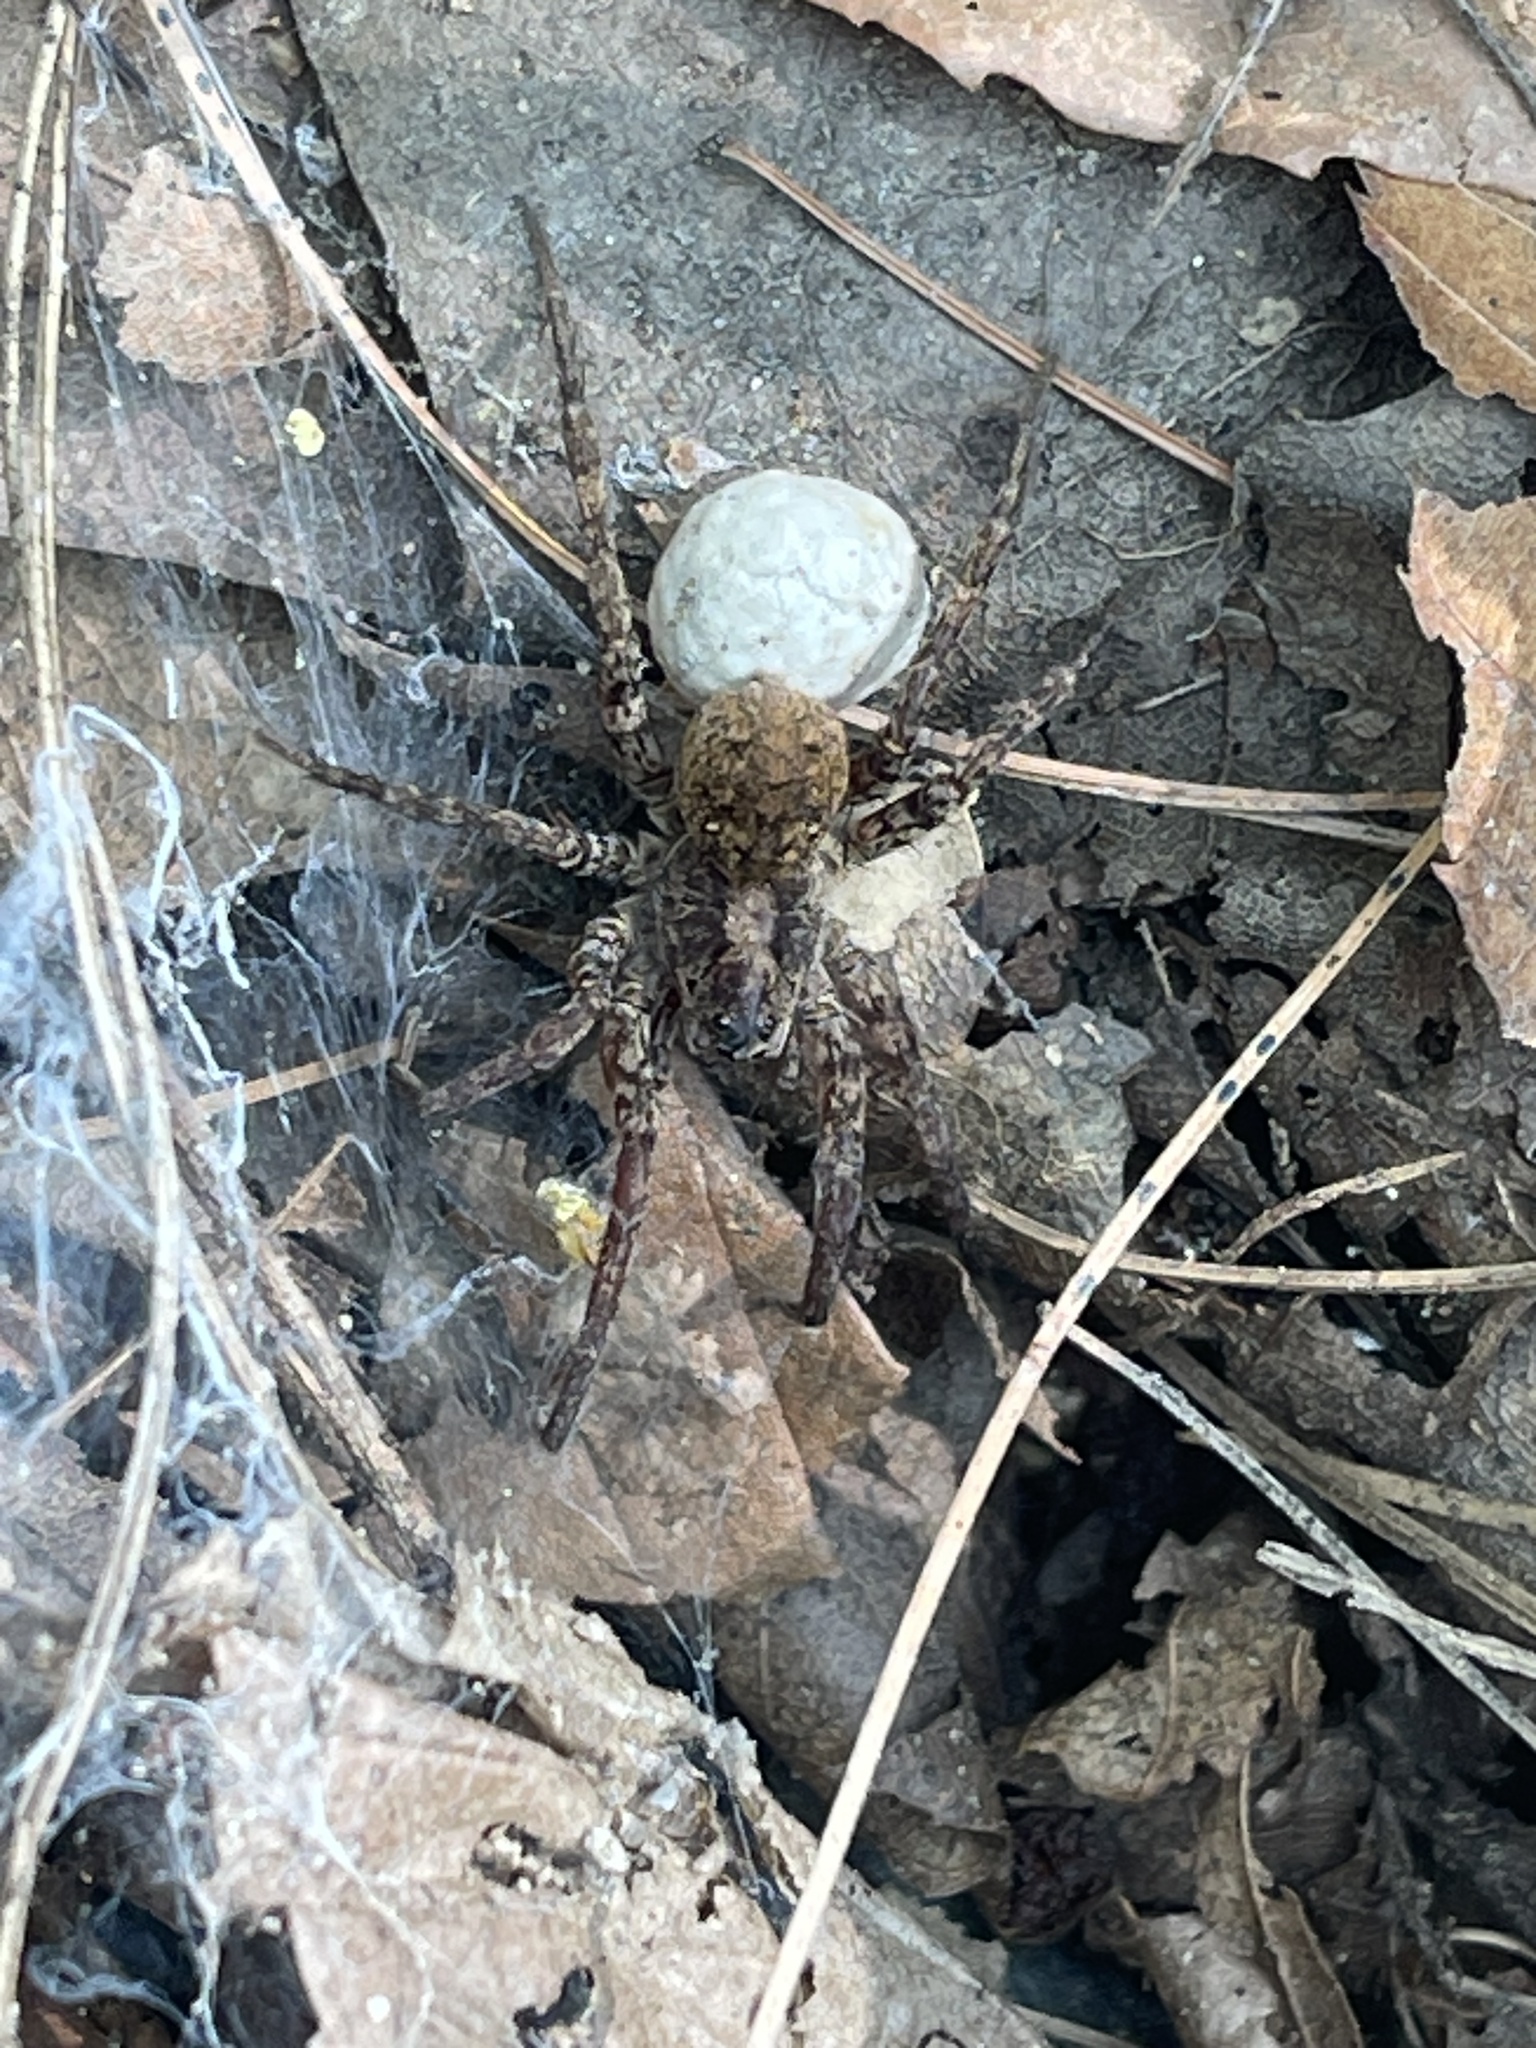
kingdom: Animalia
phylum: Arthropoda
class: Arachnida
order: Araneae
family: Lycosidae
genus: Gladicosa
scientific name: Gladicosa gulosa
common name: Drumming sword wolf spider
